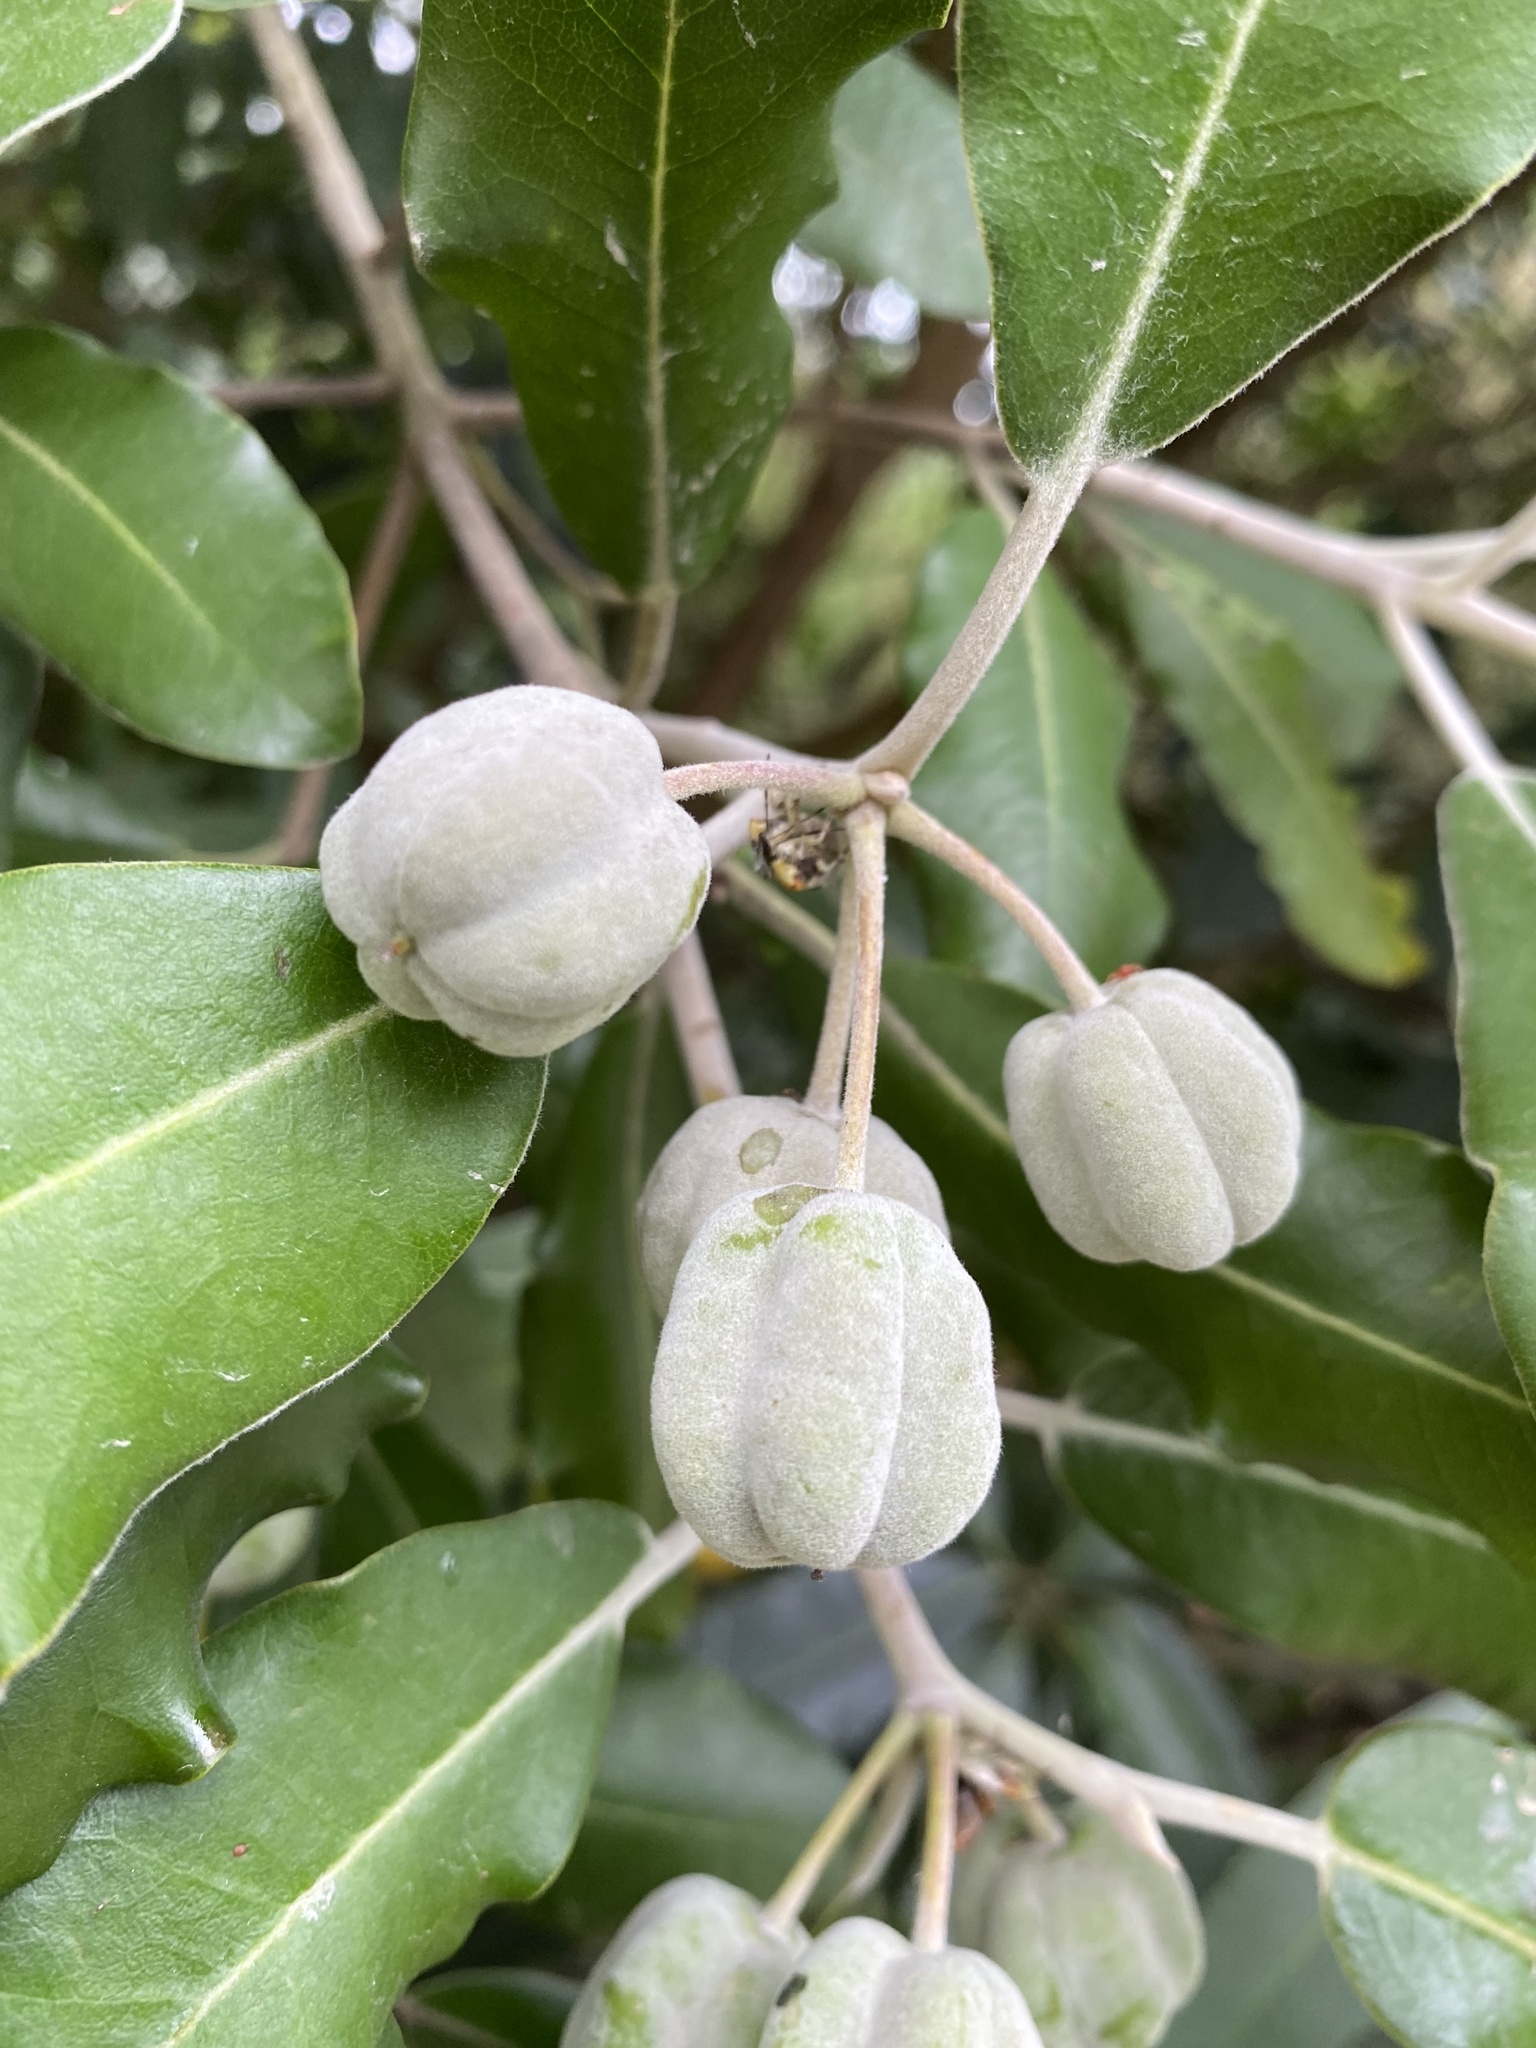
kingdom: Plantae
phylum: Tracheophyta
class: Magnoliopsida
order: Apiales
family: Pittosporaceae
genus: Pittosporum
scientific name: Pittosporum ralphii
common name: Ralph's desertwillow
